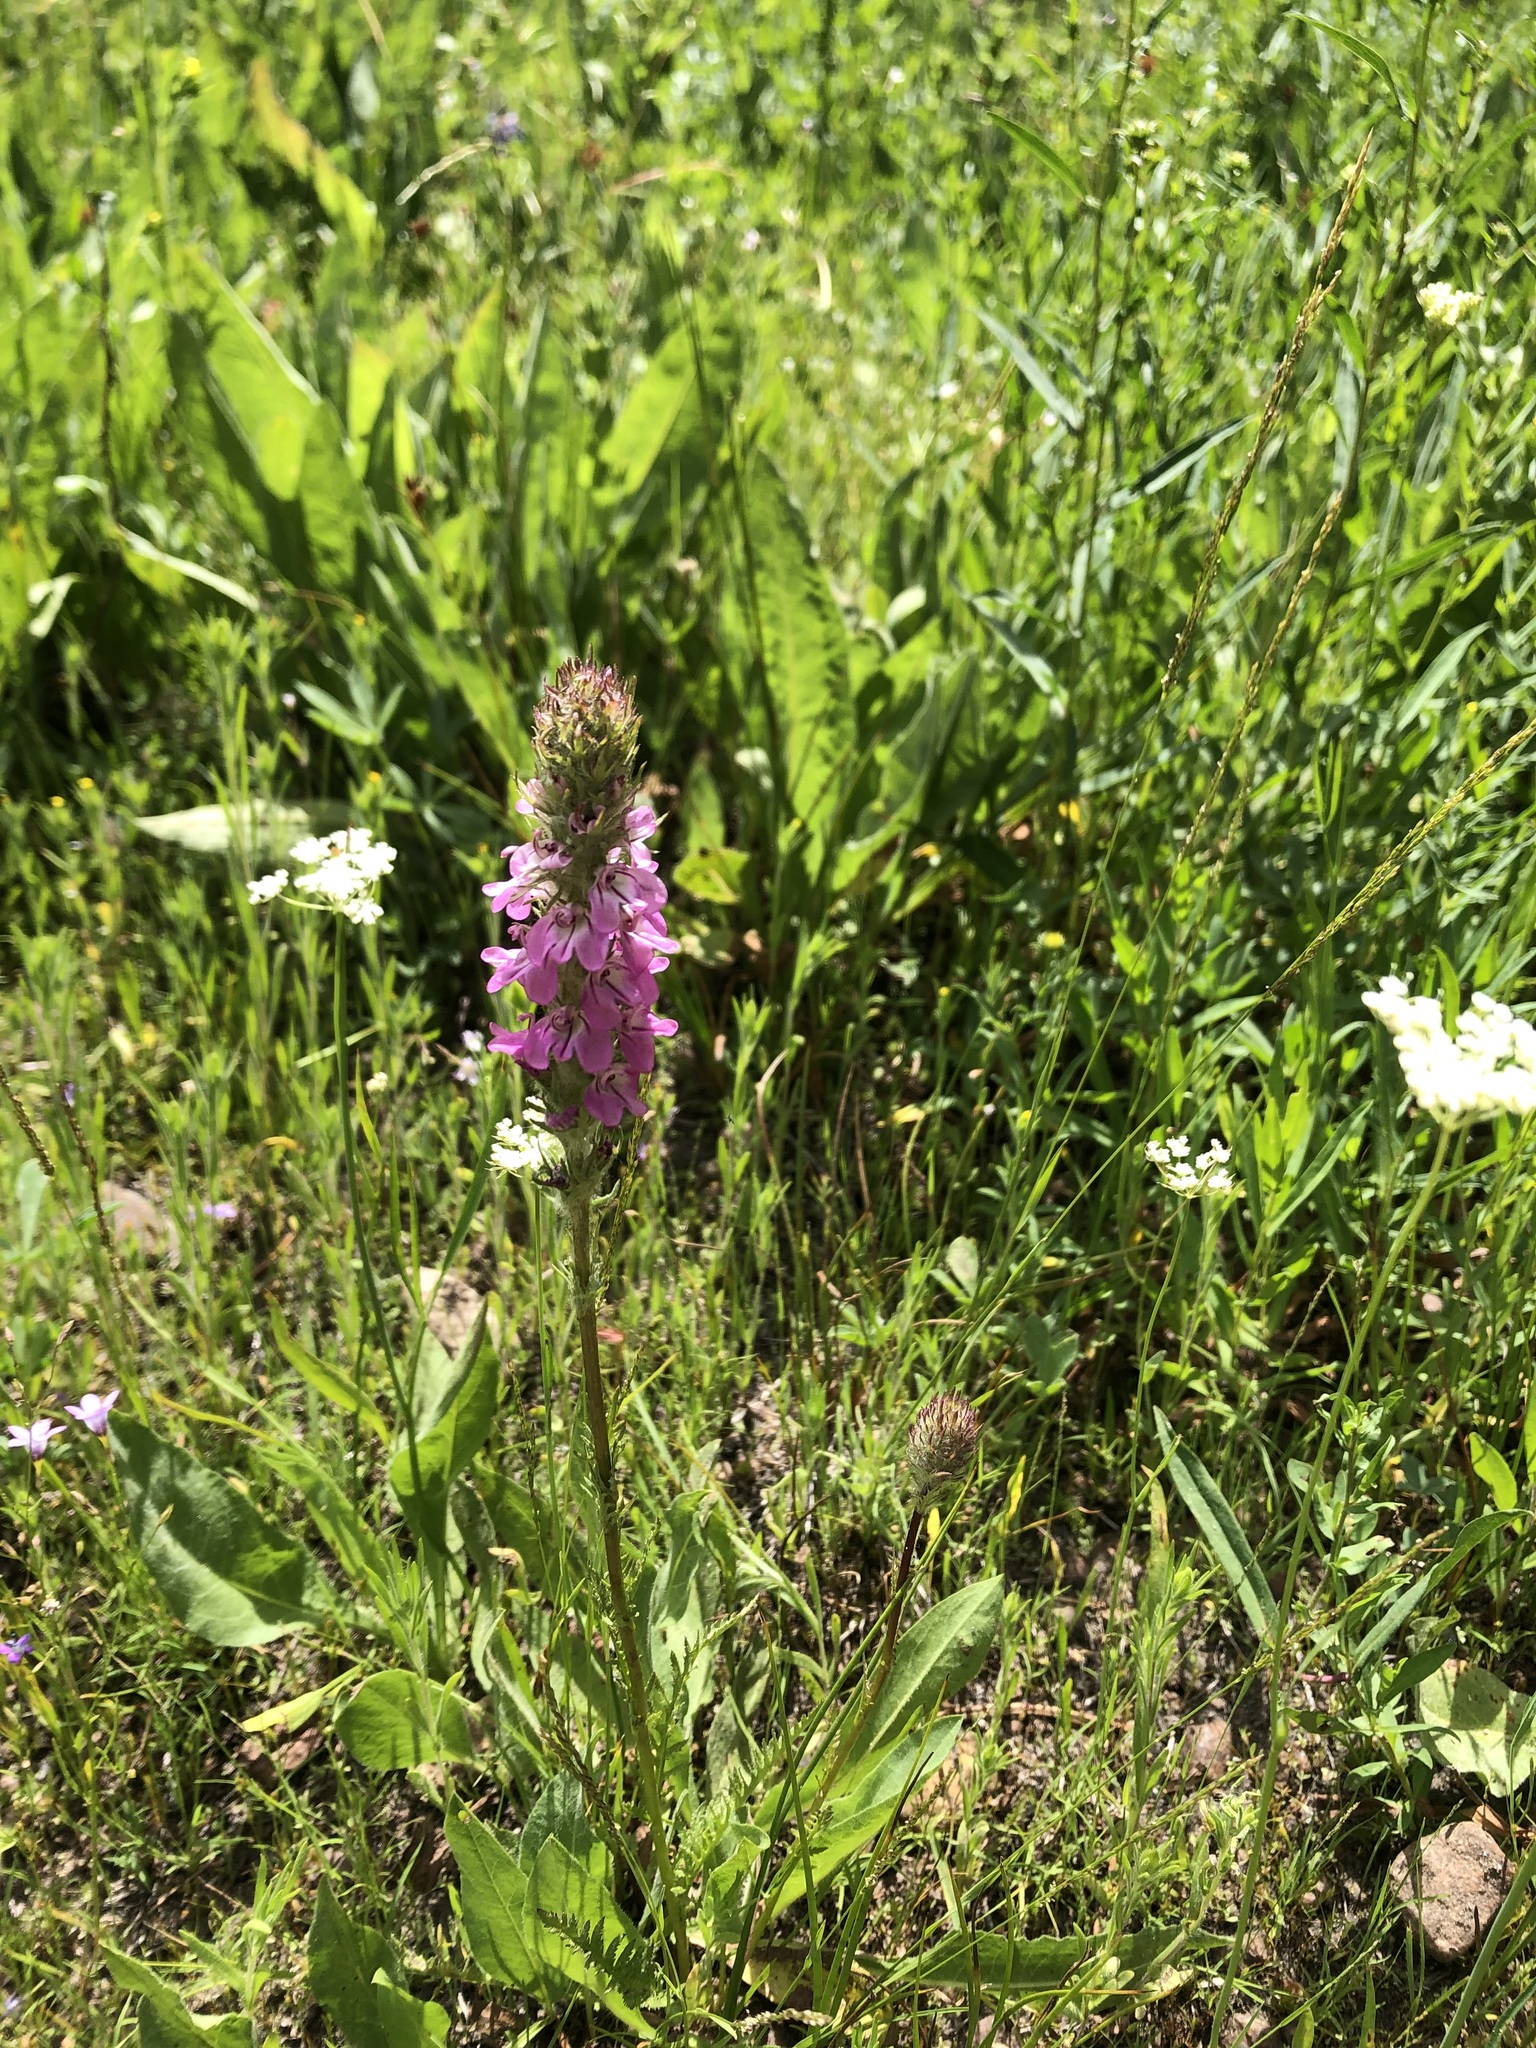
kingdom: Plantae
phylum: Tracheophyta
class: Magnoliopsida
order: Lamiales
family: Orobanchaceae
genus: Pedicularis
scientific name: Pedicularis attollens
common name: Slender pedicularis
